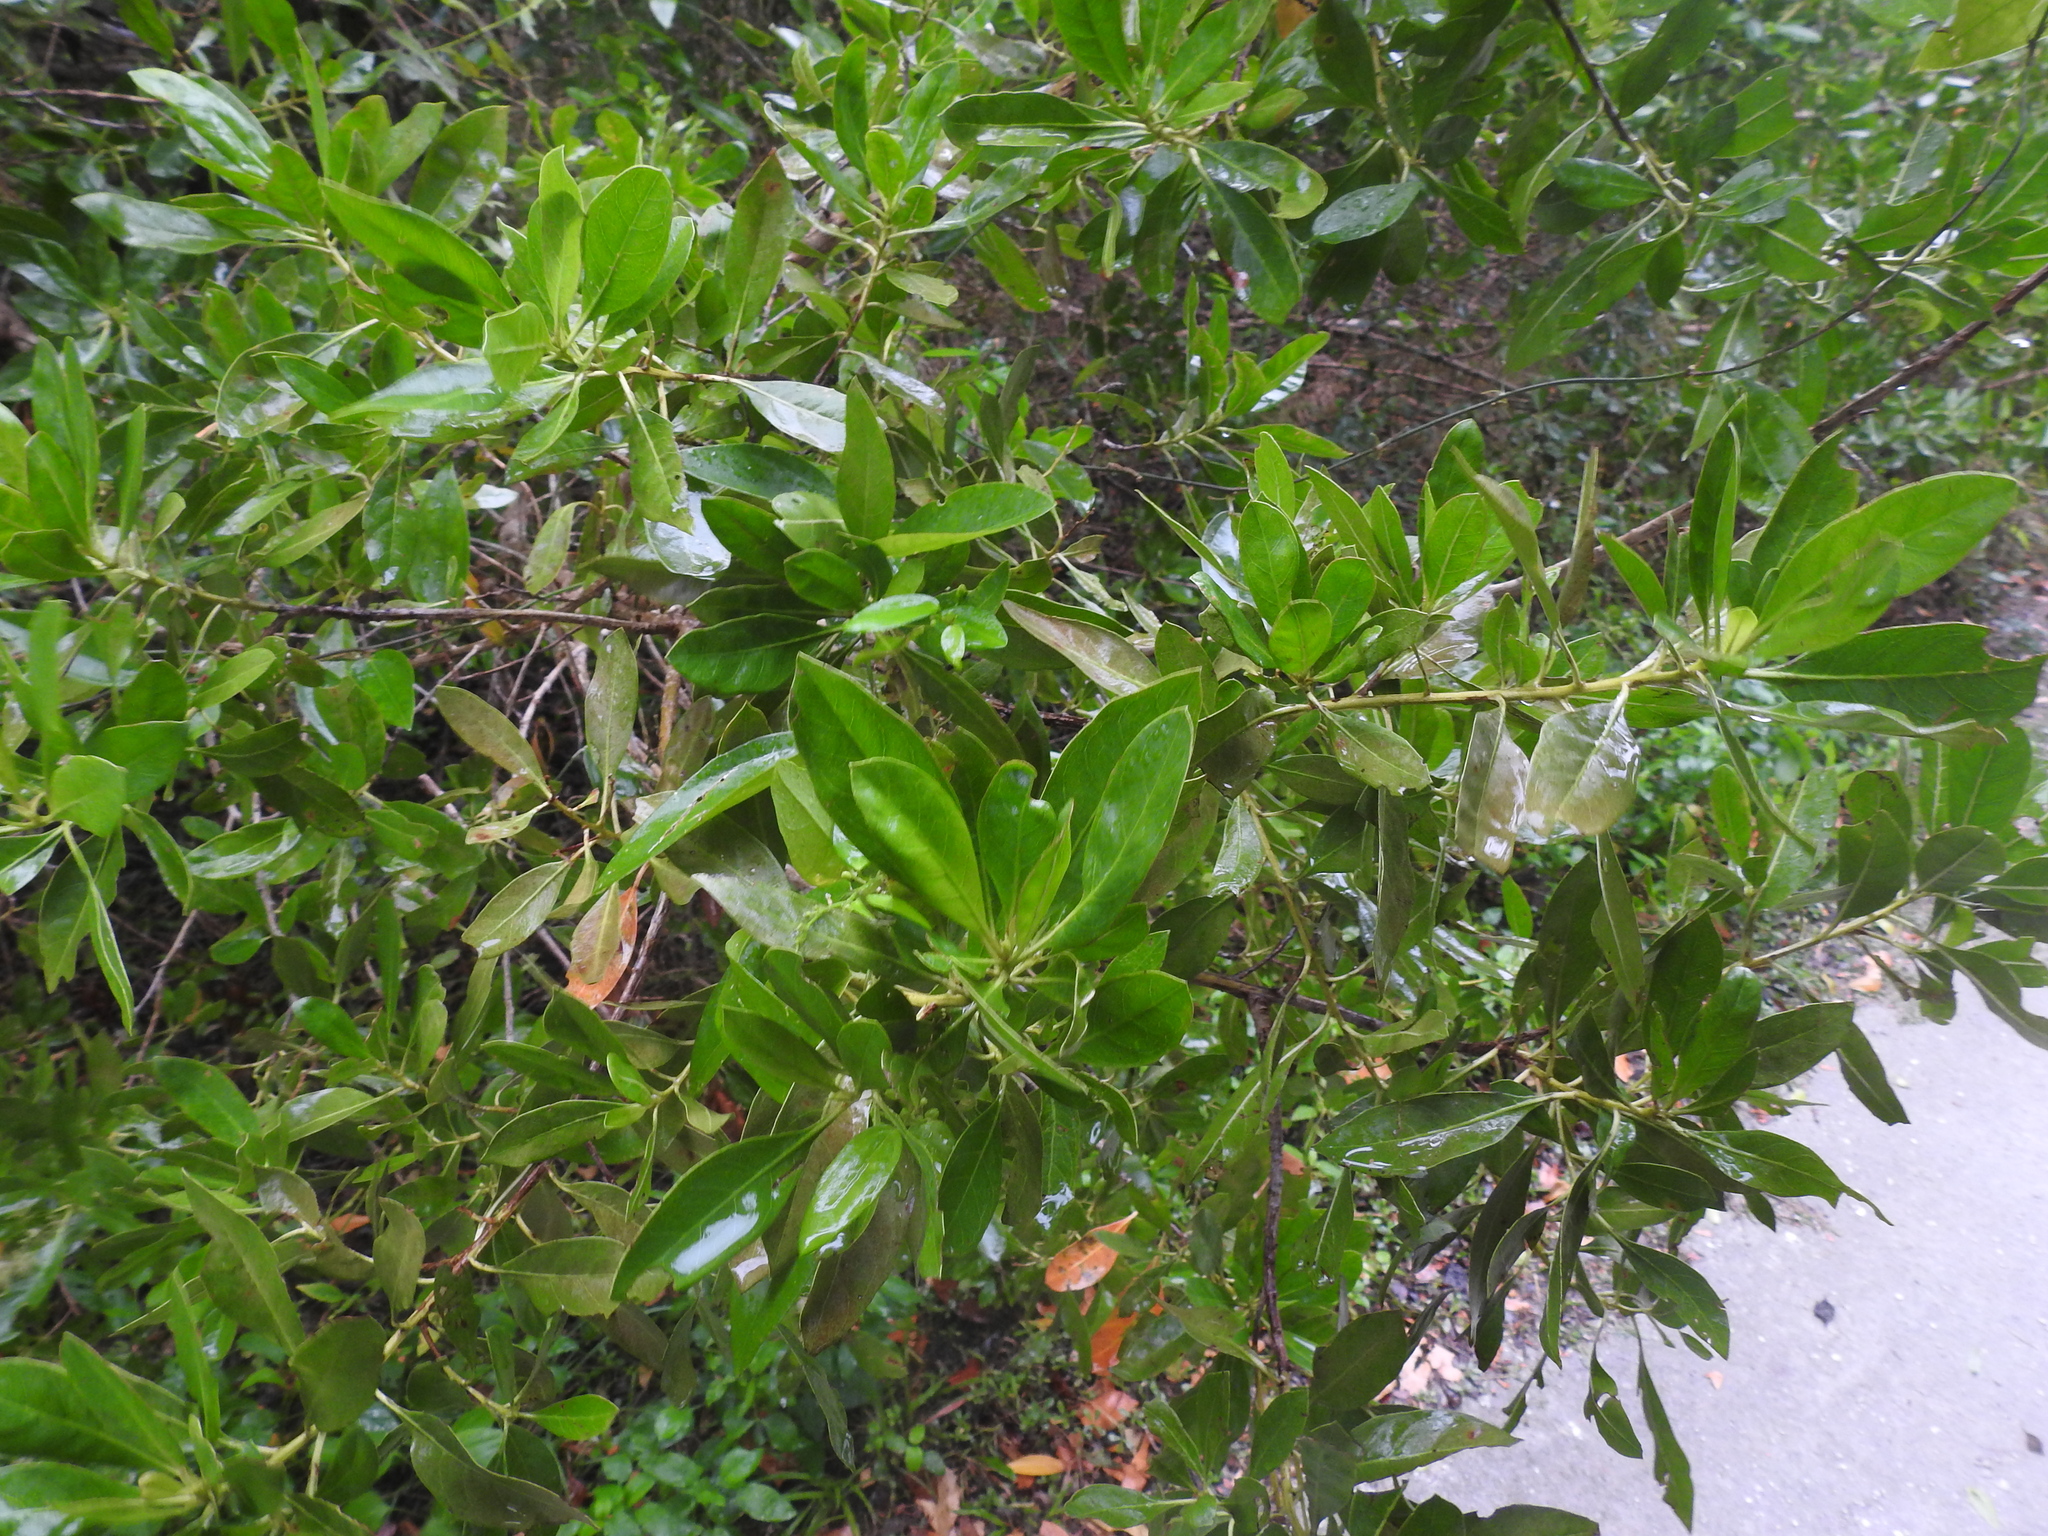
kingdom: Plantae
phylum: Tracheophyta
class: Magnoliopsida
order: Myrtales
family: Combretaceae
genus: Conocarpus
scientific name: Conocarpus erectus
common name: Button mangrove
